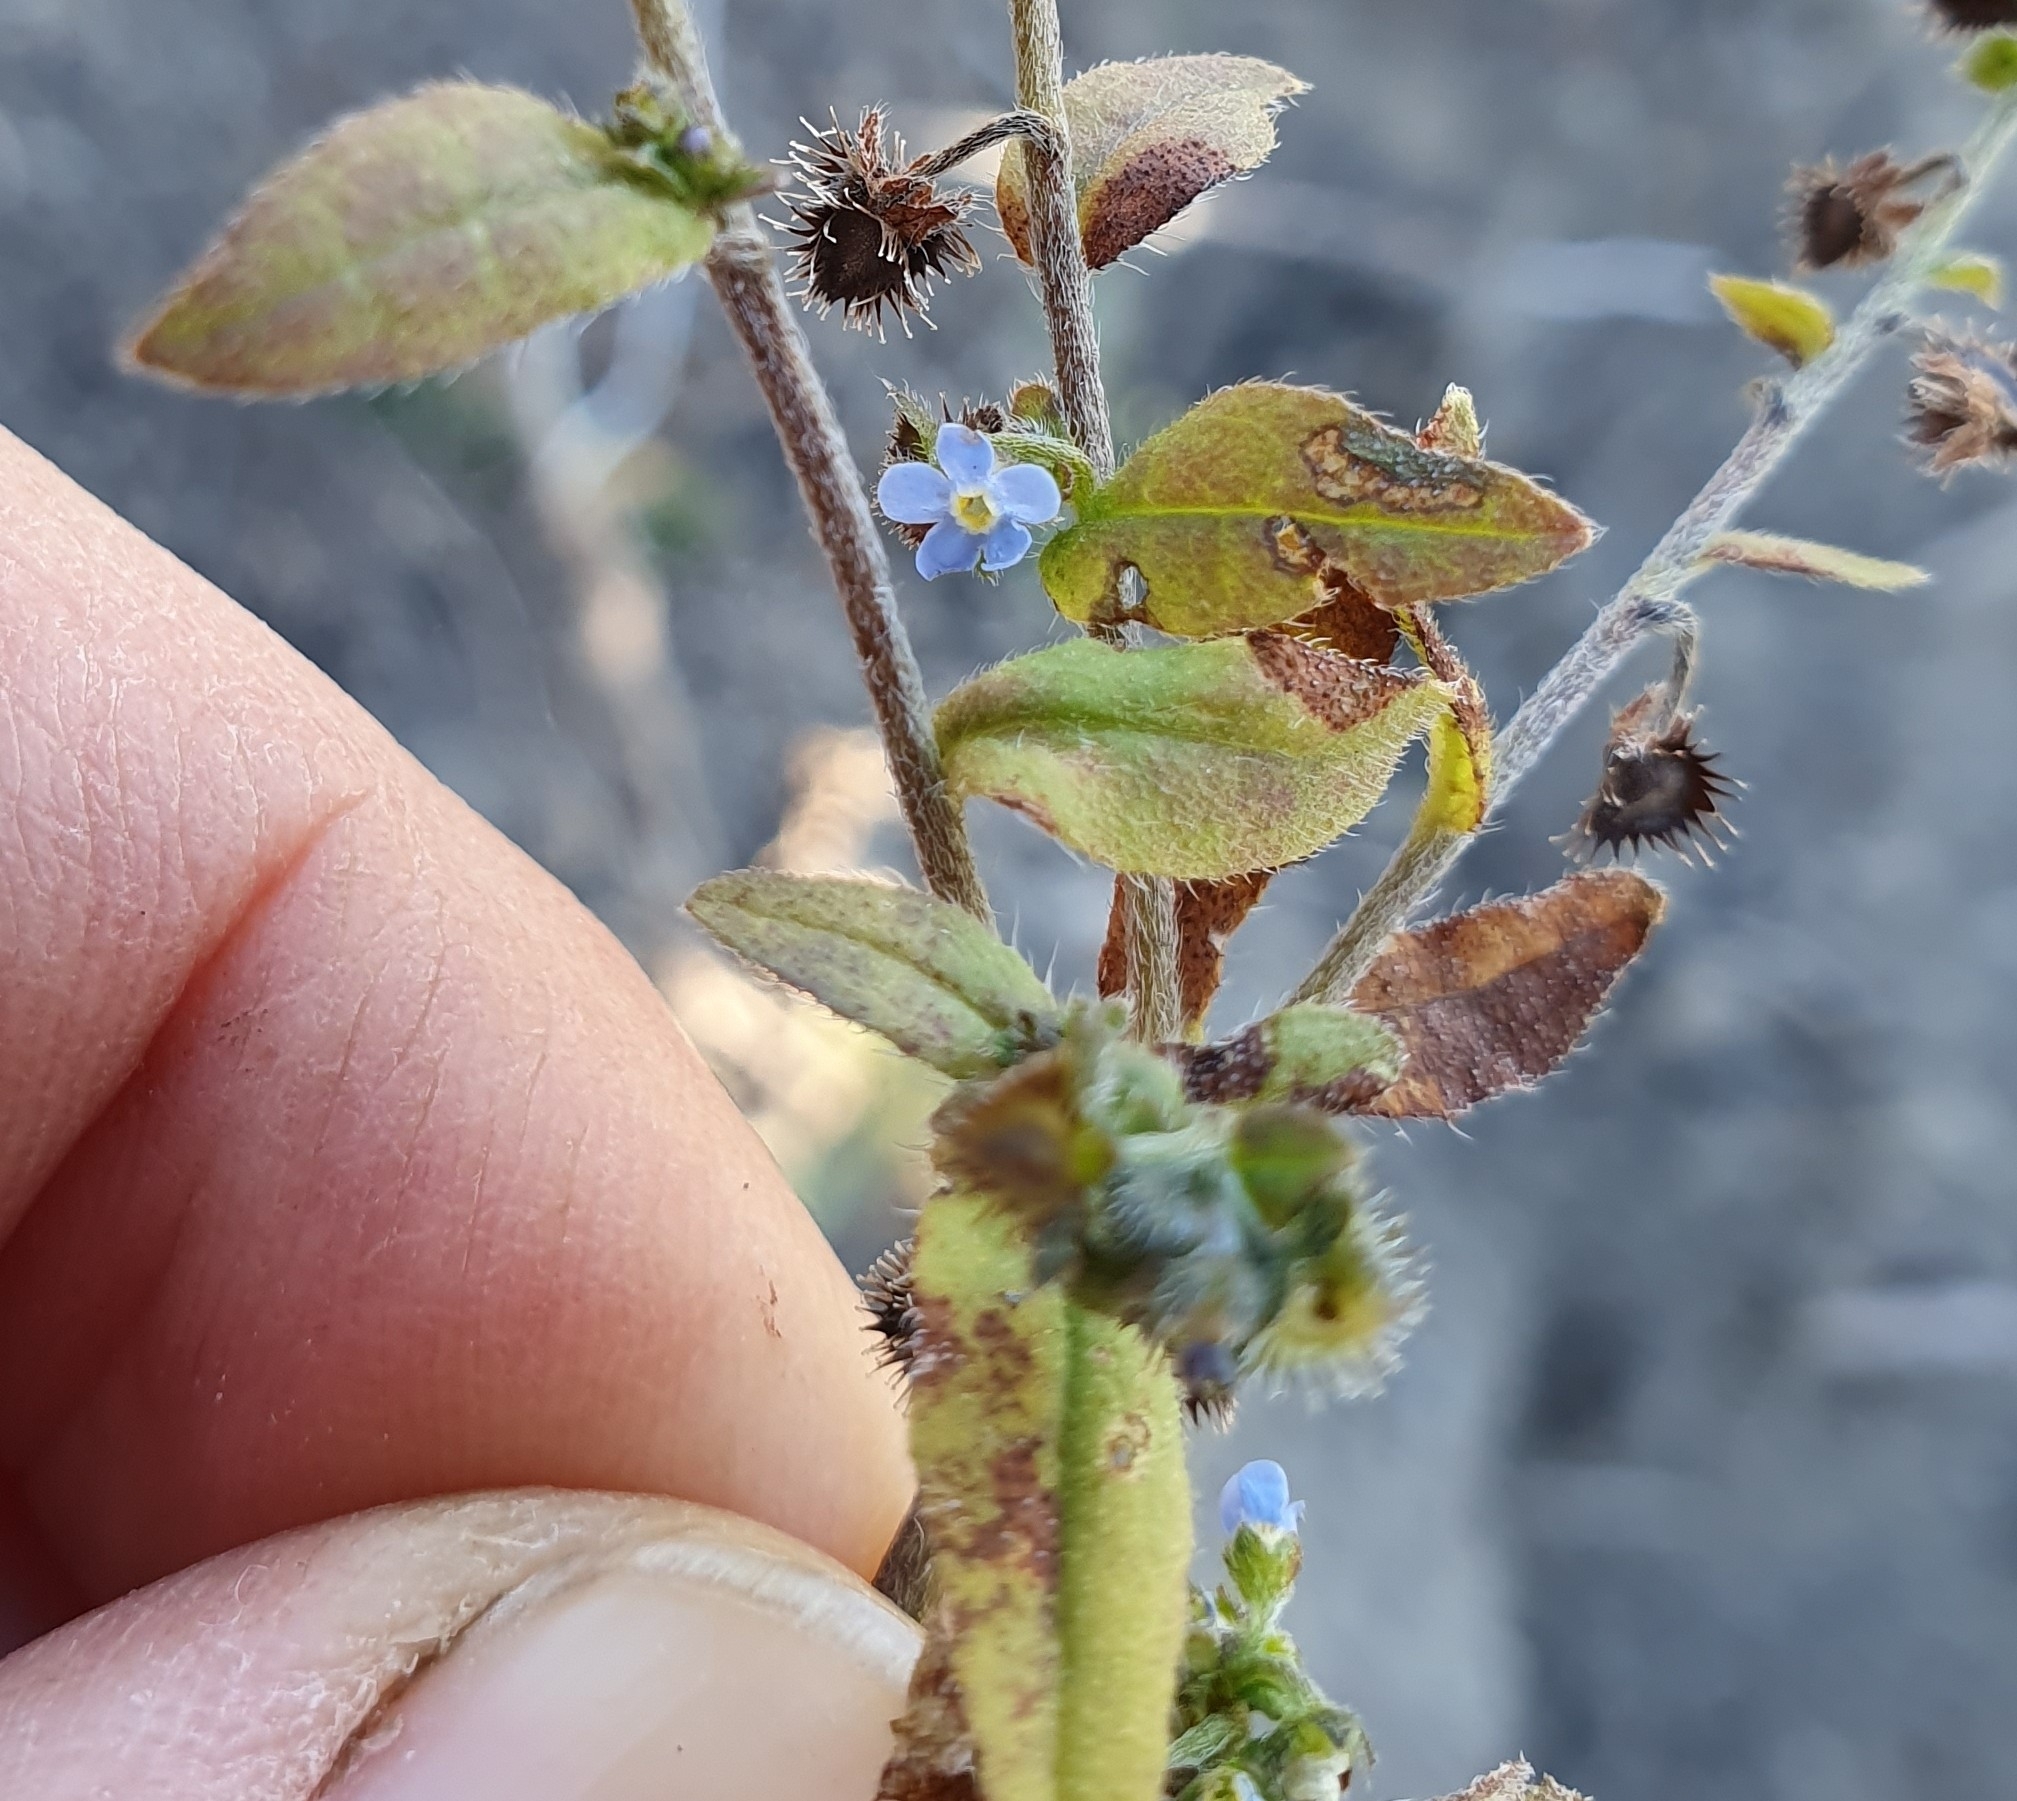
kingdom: Plantae
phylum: Tracheophyta
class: Magnoliopsida
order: Boraginales
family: Boraginaceae
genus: Hackelia
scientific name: Hackelia deflexa
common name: Nodding stickseed
